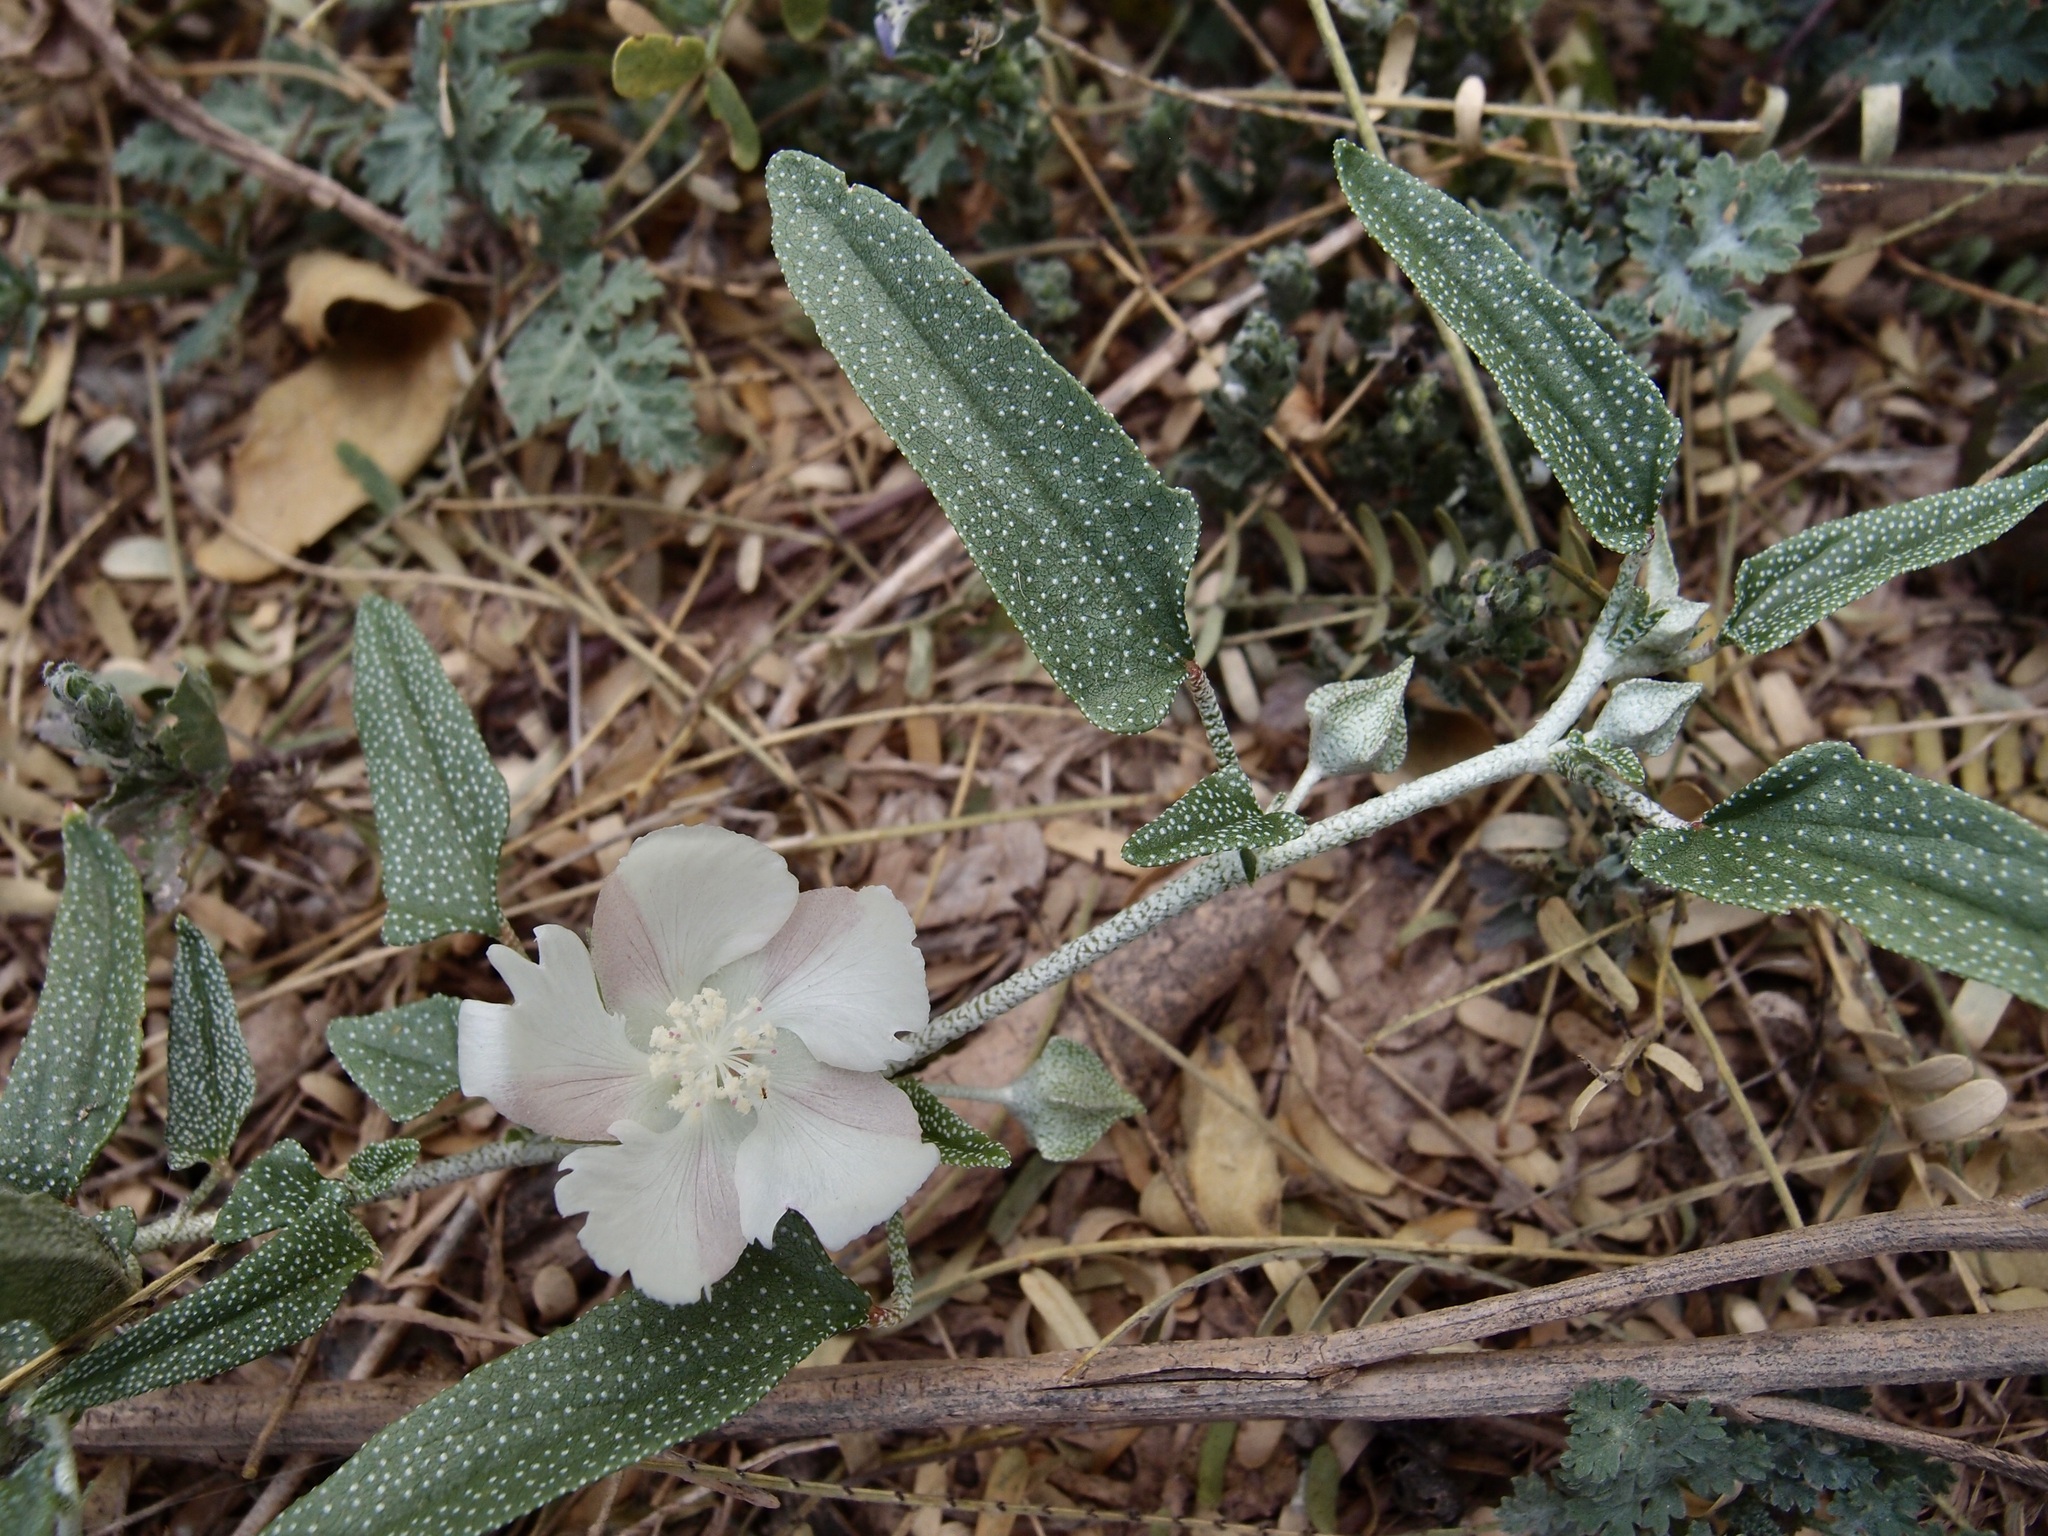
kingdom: Plantae
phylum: Tracheophyta
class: Magnoliopsida
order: Malvales
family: Malvaceae
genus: Malvella
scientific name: Malvella sagittifolia
